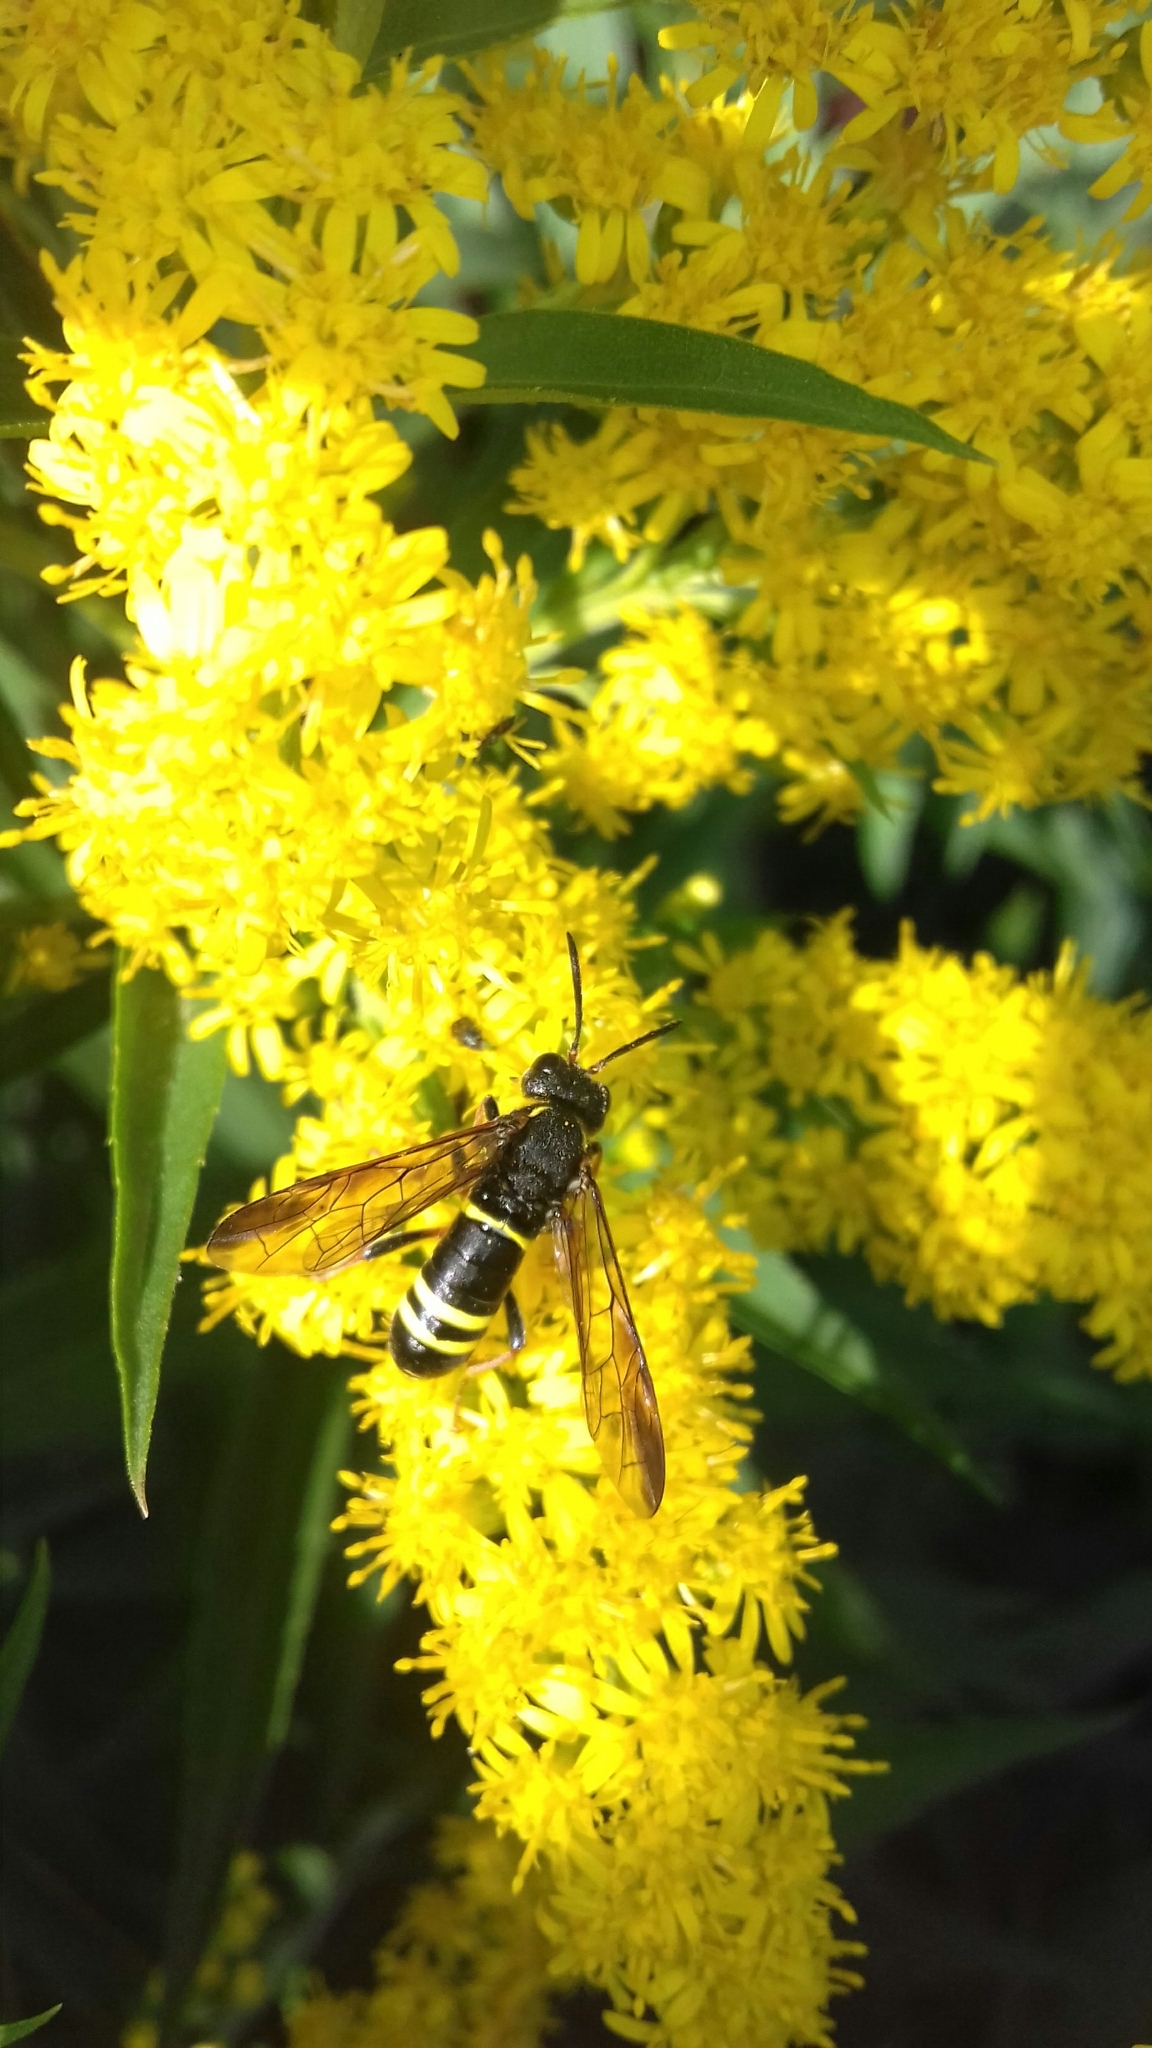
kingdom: Animalia
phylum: Arthropoda
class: Insecta
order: Hymenoptera
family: Tenthredinidae
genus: Tenthredo
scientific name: Tenthredo vespa
